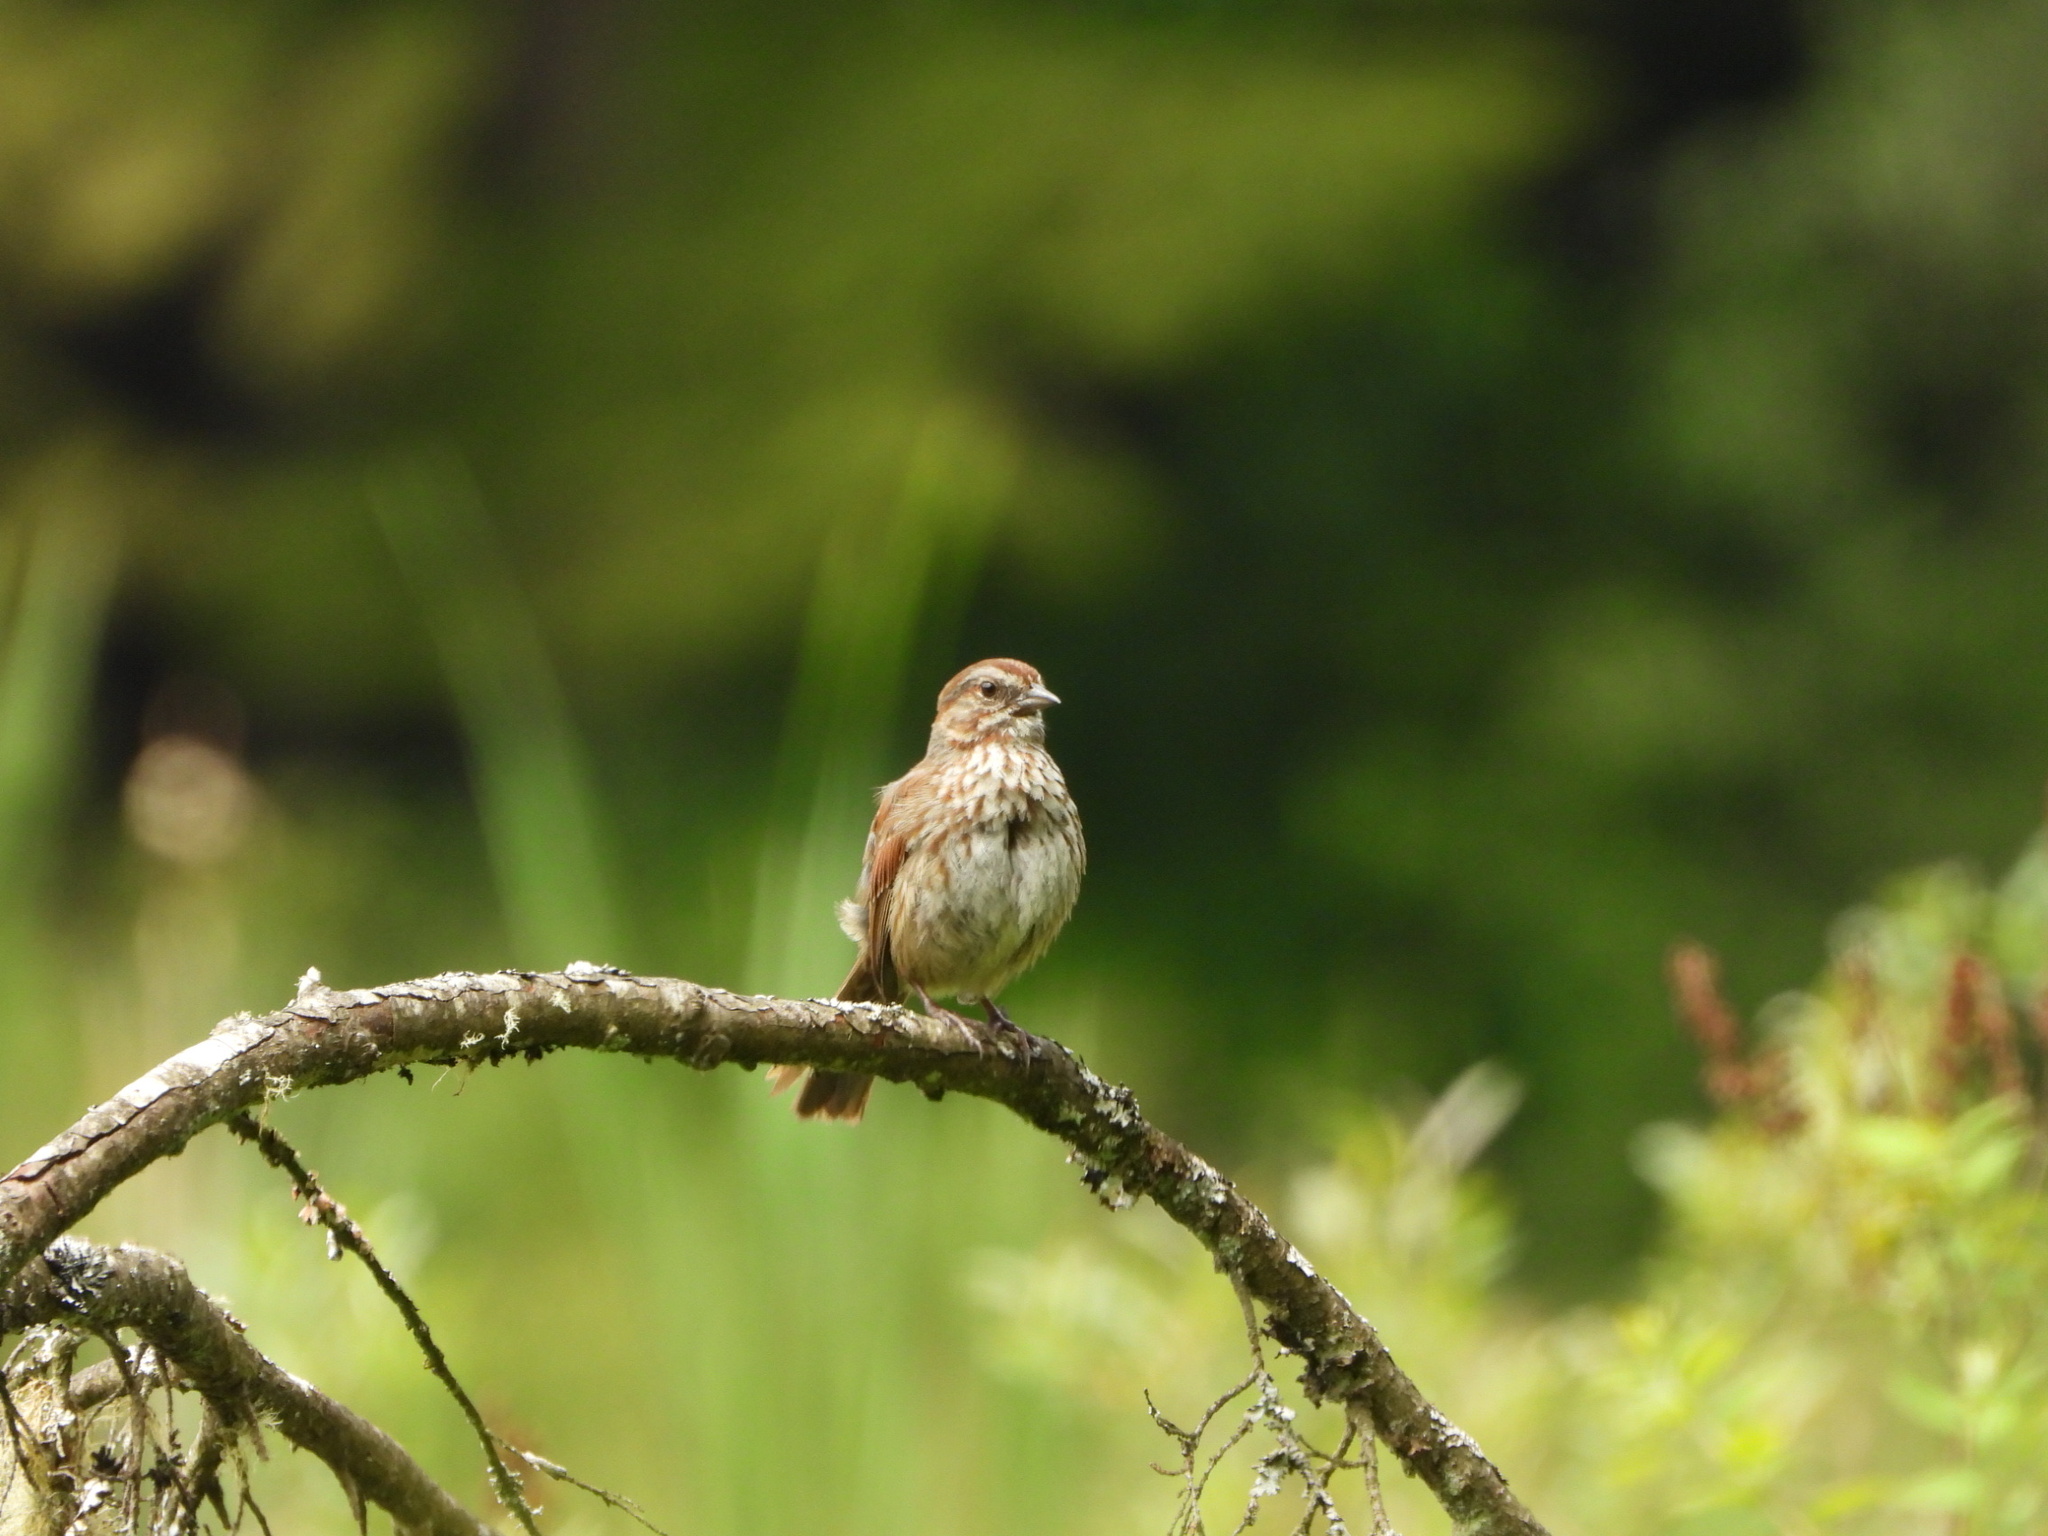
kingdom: Animalia
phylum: Chordata
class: Aves
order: Passeriformes
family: Passerellidae
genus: Melospiza
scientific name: Melospiza melodia
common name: Song sparrow
